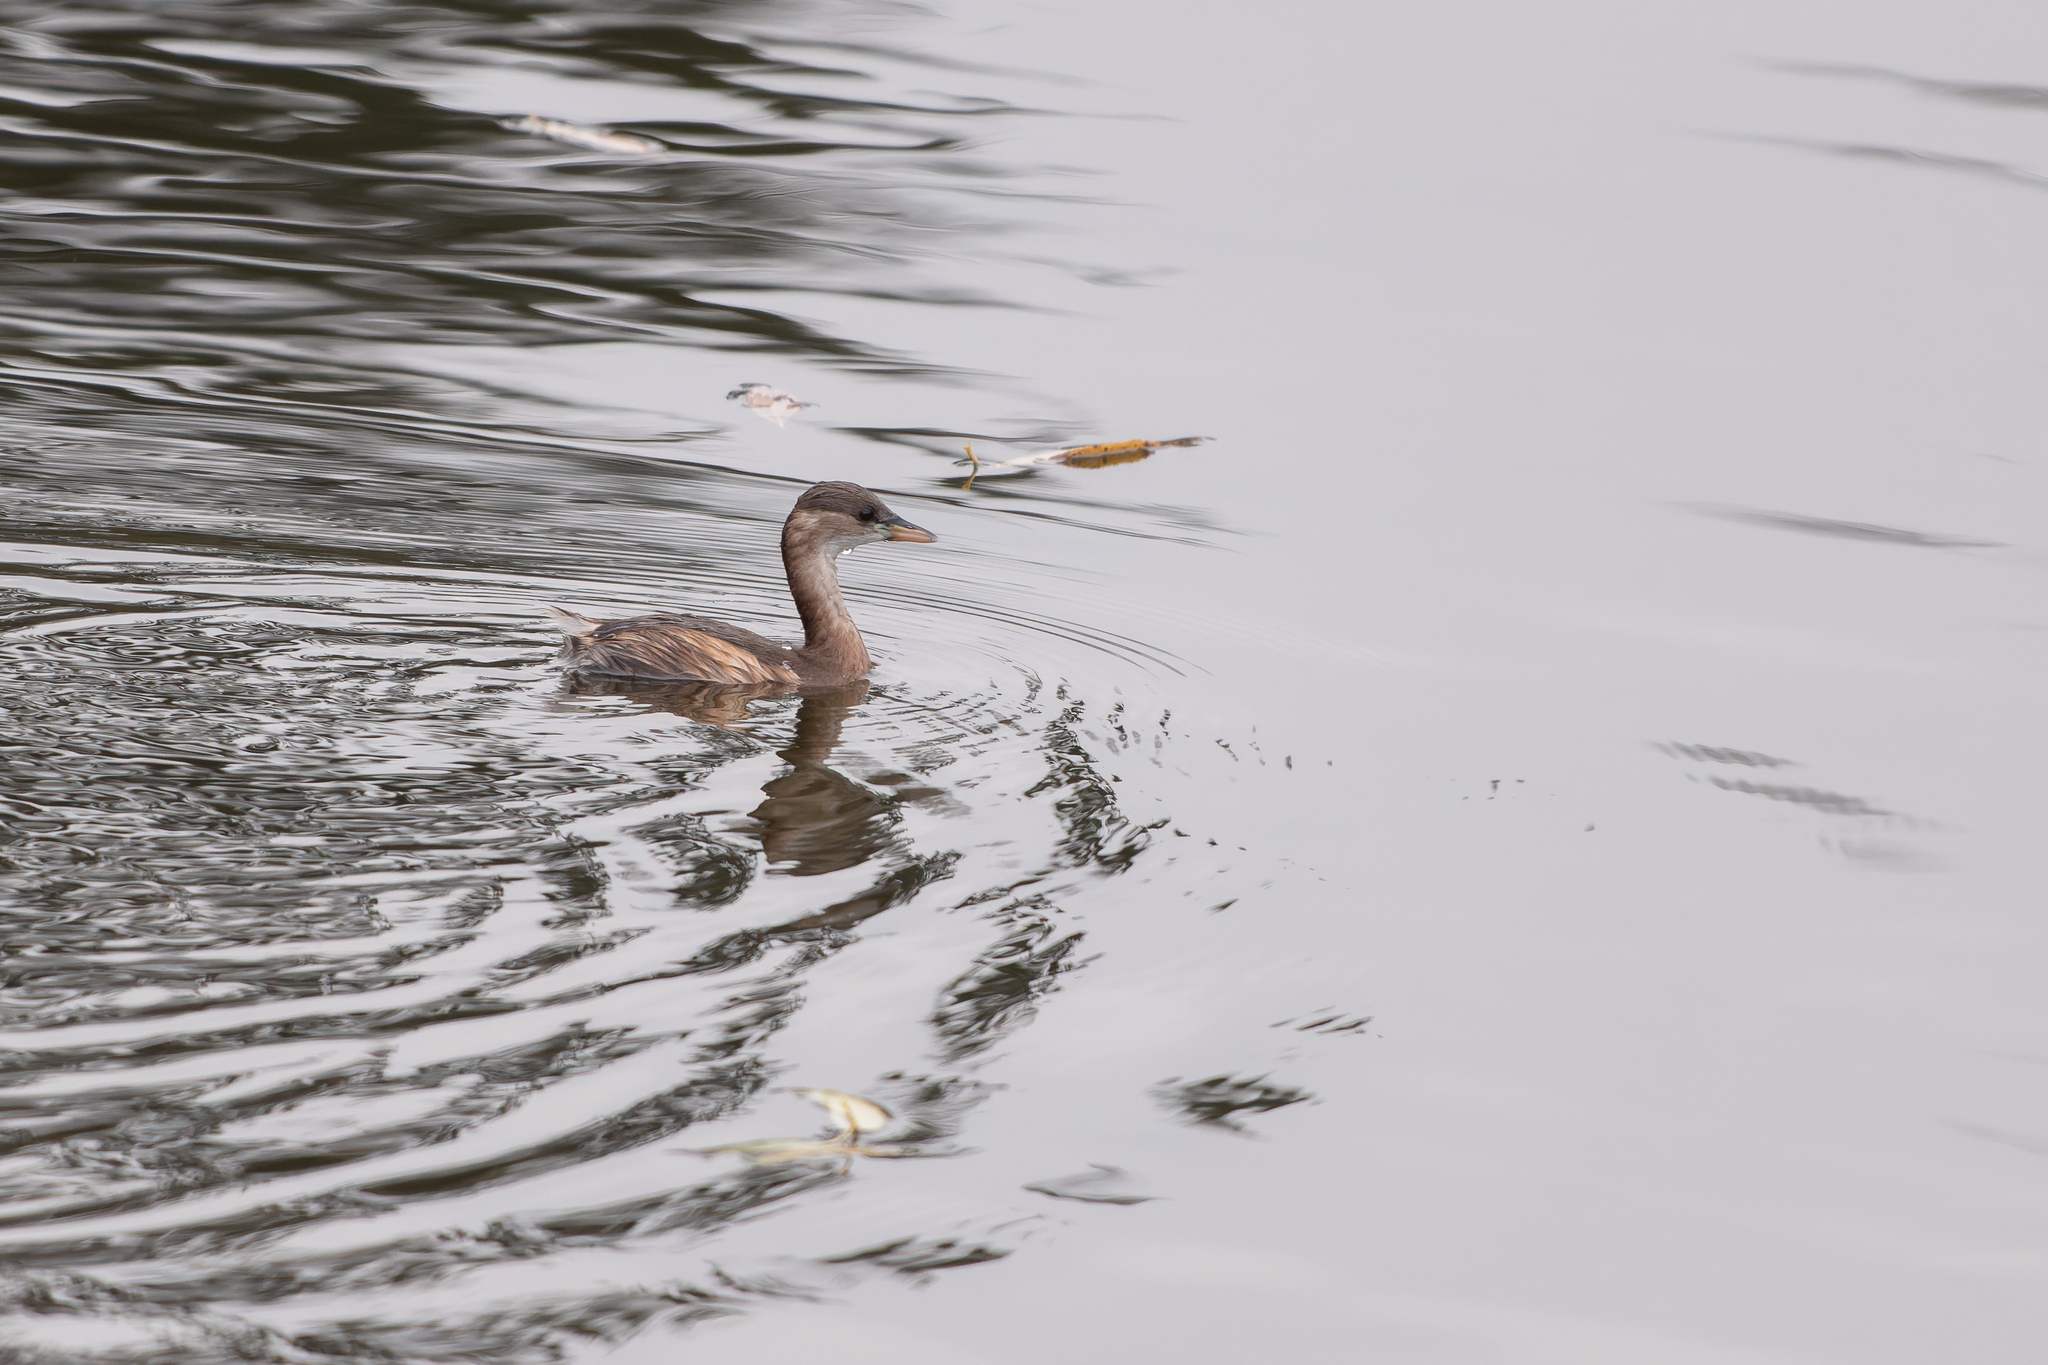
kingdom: Animalia
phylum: Chordata
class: Aves
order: Podicipediformes
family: Podicipedidae
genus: Tachybaptus
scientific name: Tachybaptus ruficollis
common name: Little grebe
